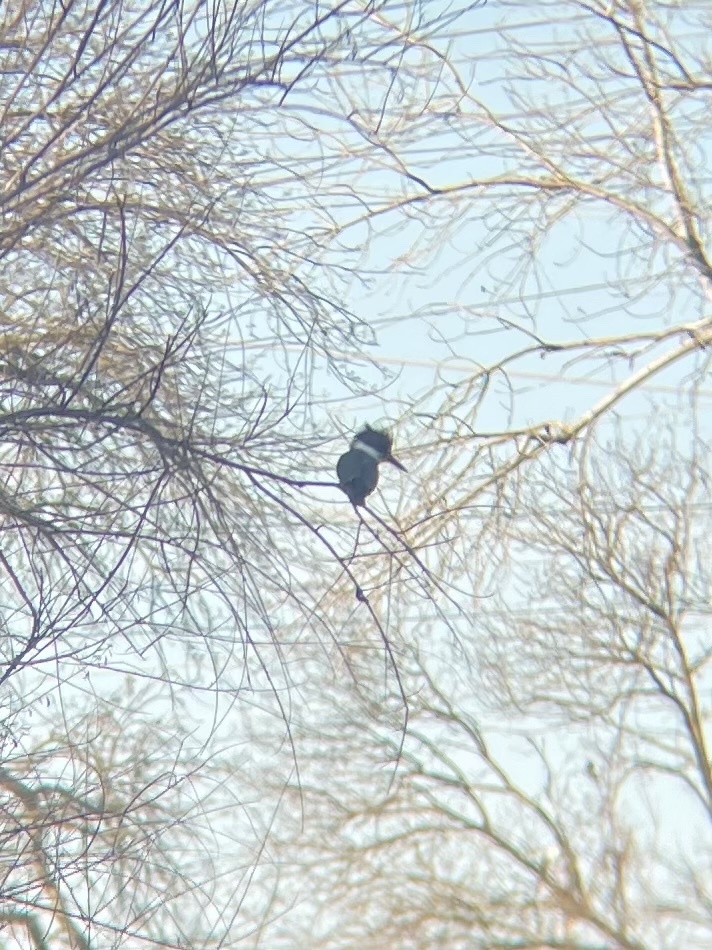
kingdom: Animalia
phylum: Chordata
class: Aves
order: Coraciiformes
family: Alcedinidae
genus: Megaceryle
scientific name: Megaceryle alcyon
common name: Belted kingfisher
